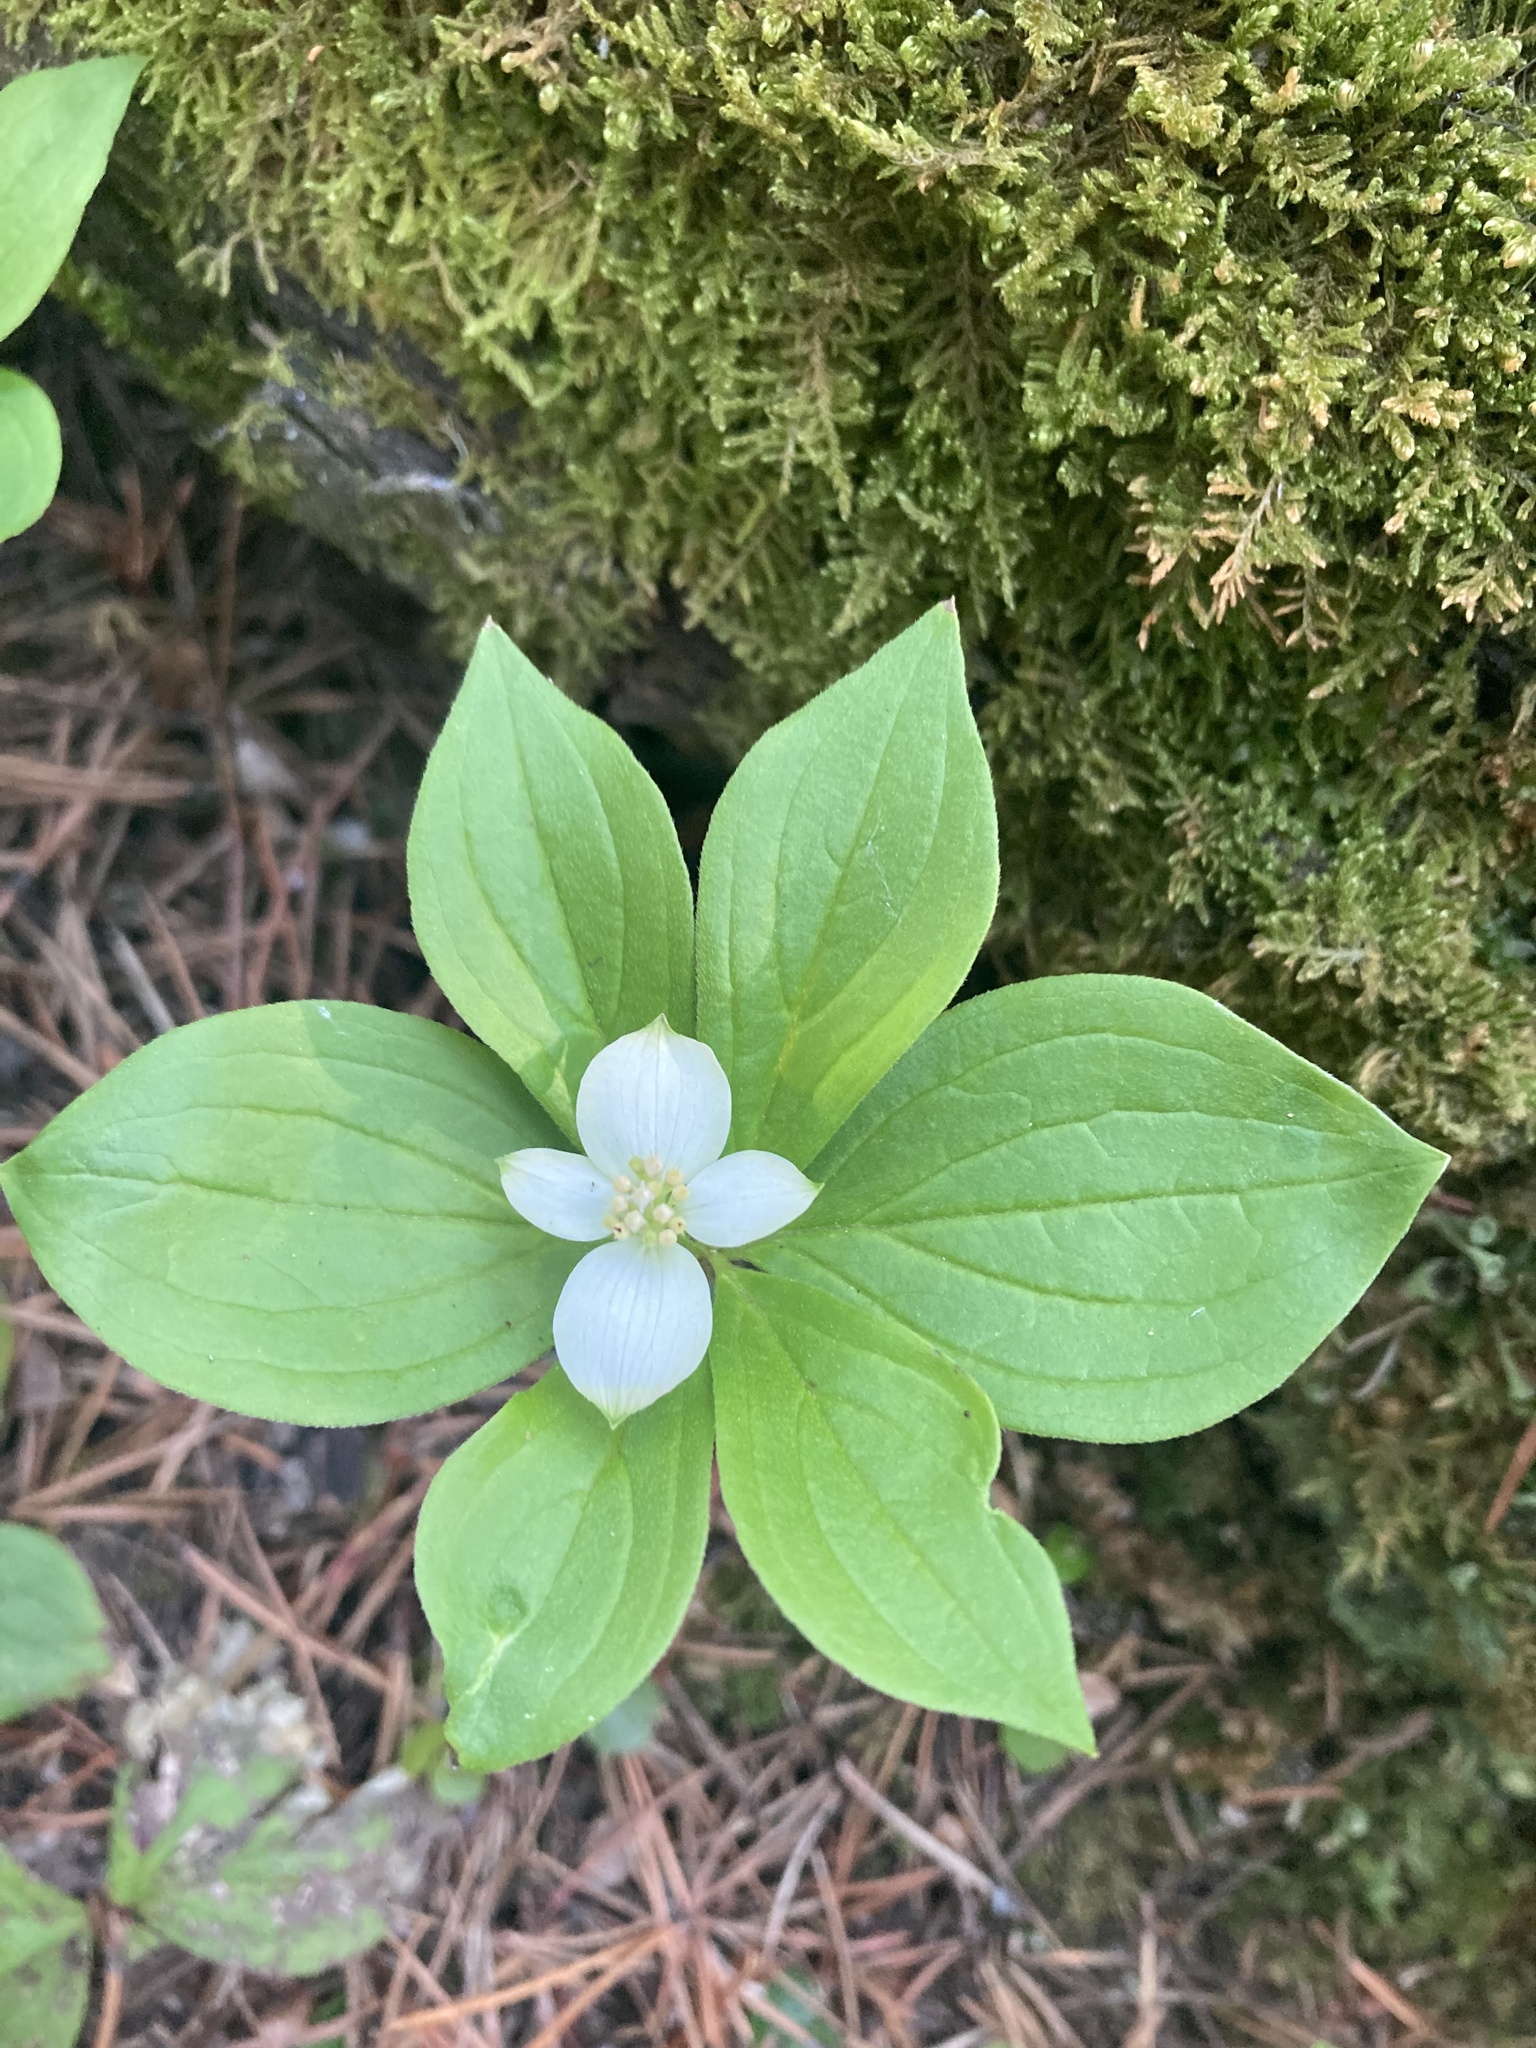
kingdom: Plantae
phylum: Tracheophyta
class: Magnoliopsida
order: Cornales
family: Cornaceae
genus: Cornus
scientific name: Cornus canadensis
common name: Creeping dogwood
